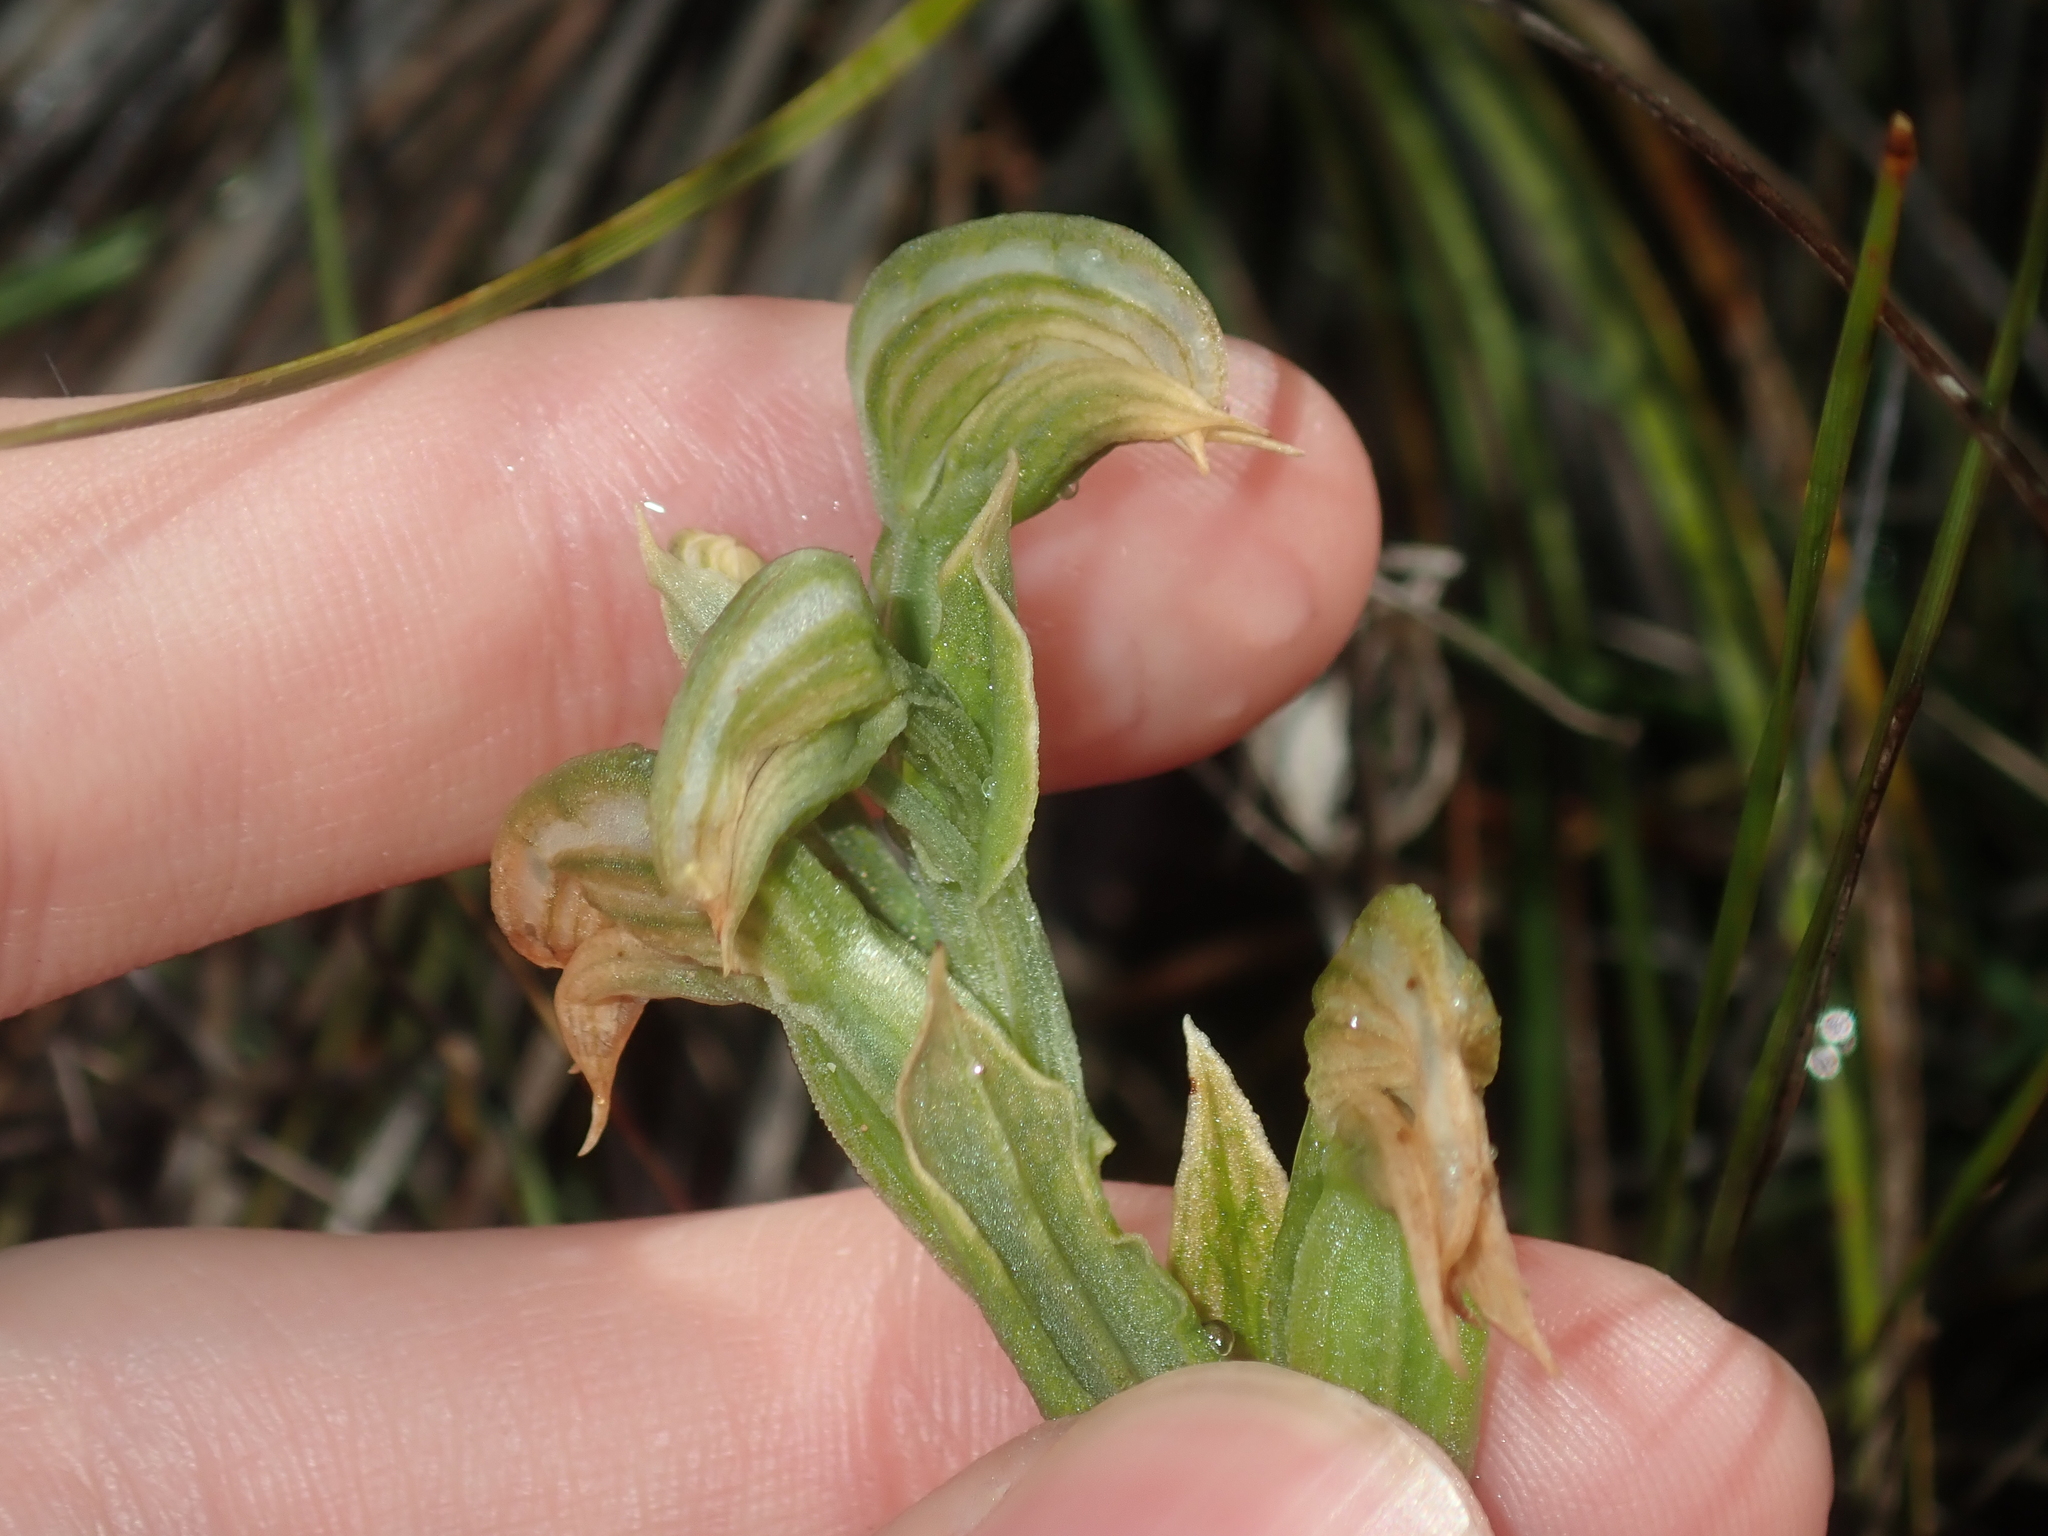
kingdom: Plantae
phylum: Tracheophyta
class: Liliopsida
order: Asparagales
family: Orchidaceae
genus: Pterostylis
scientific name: Pterostylis vittata
